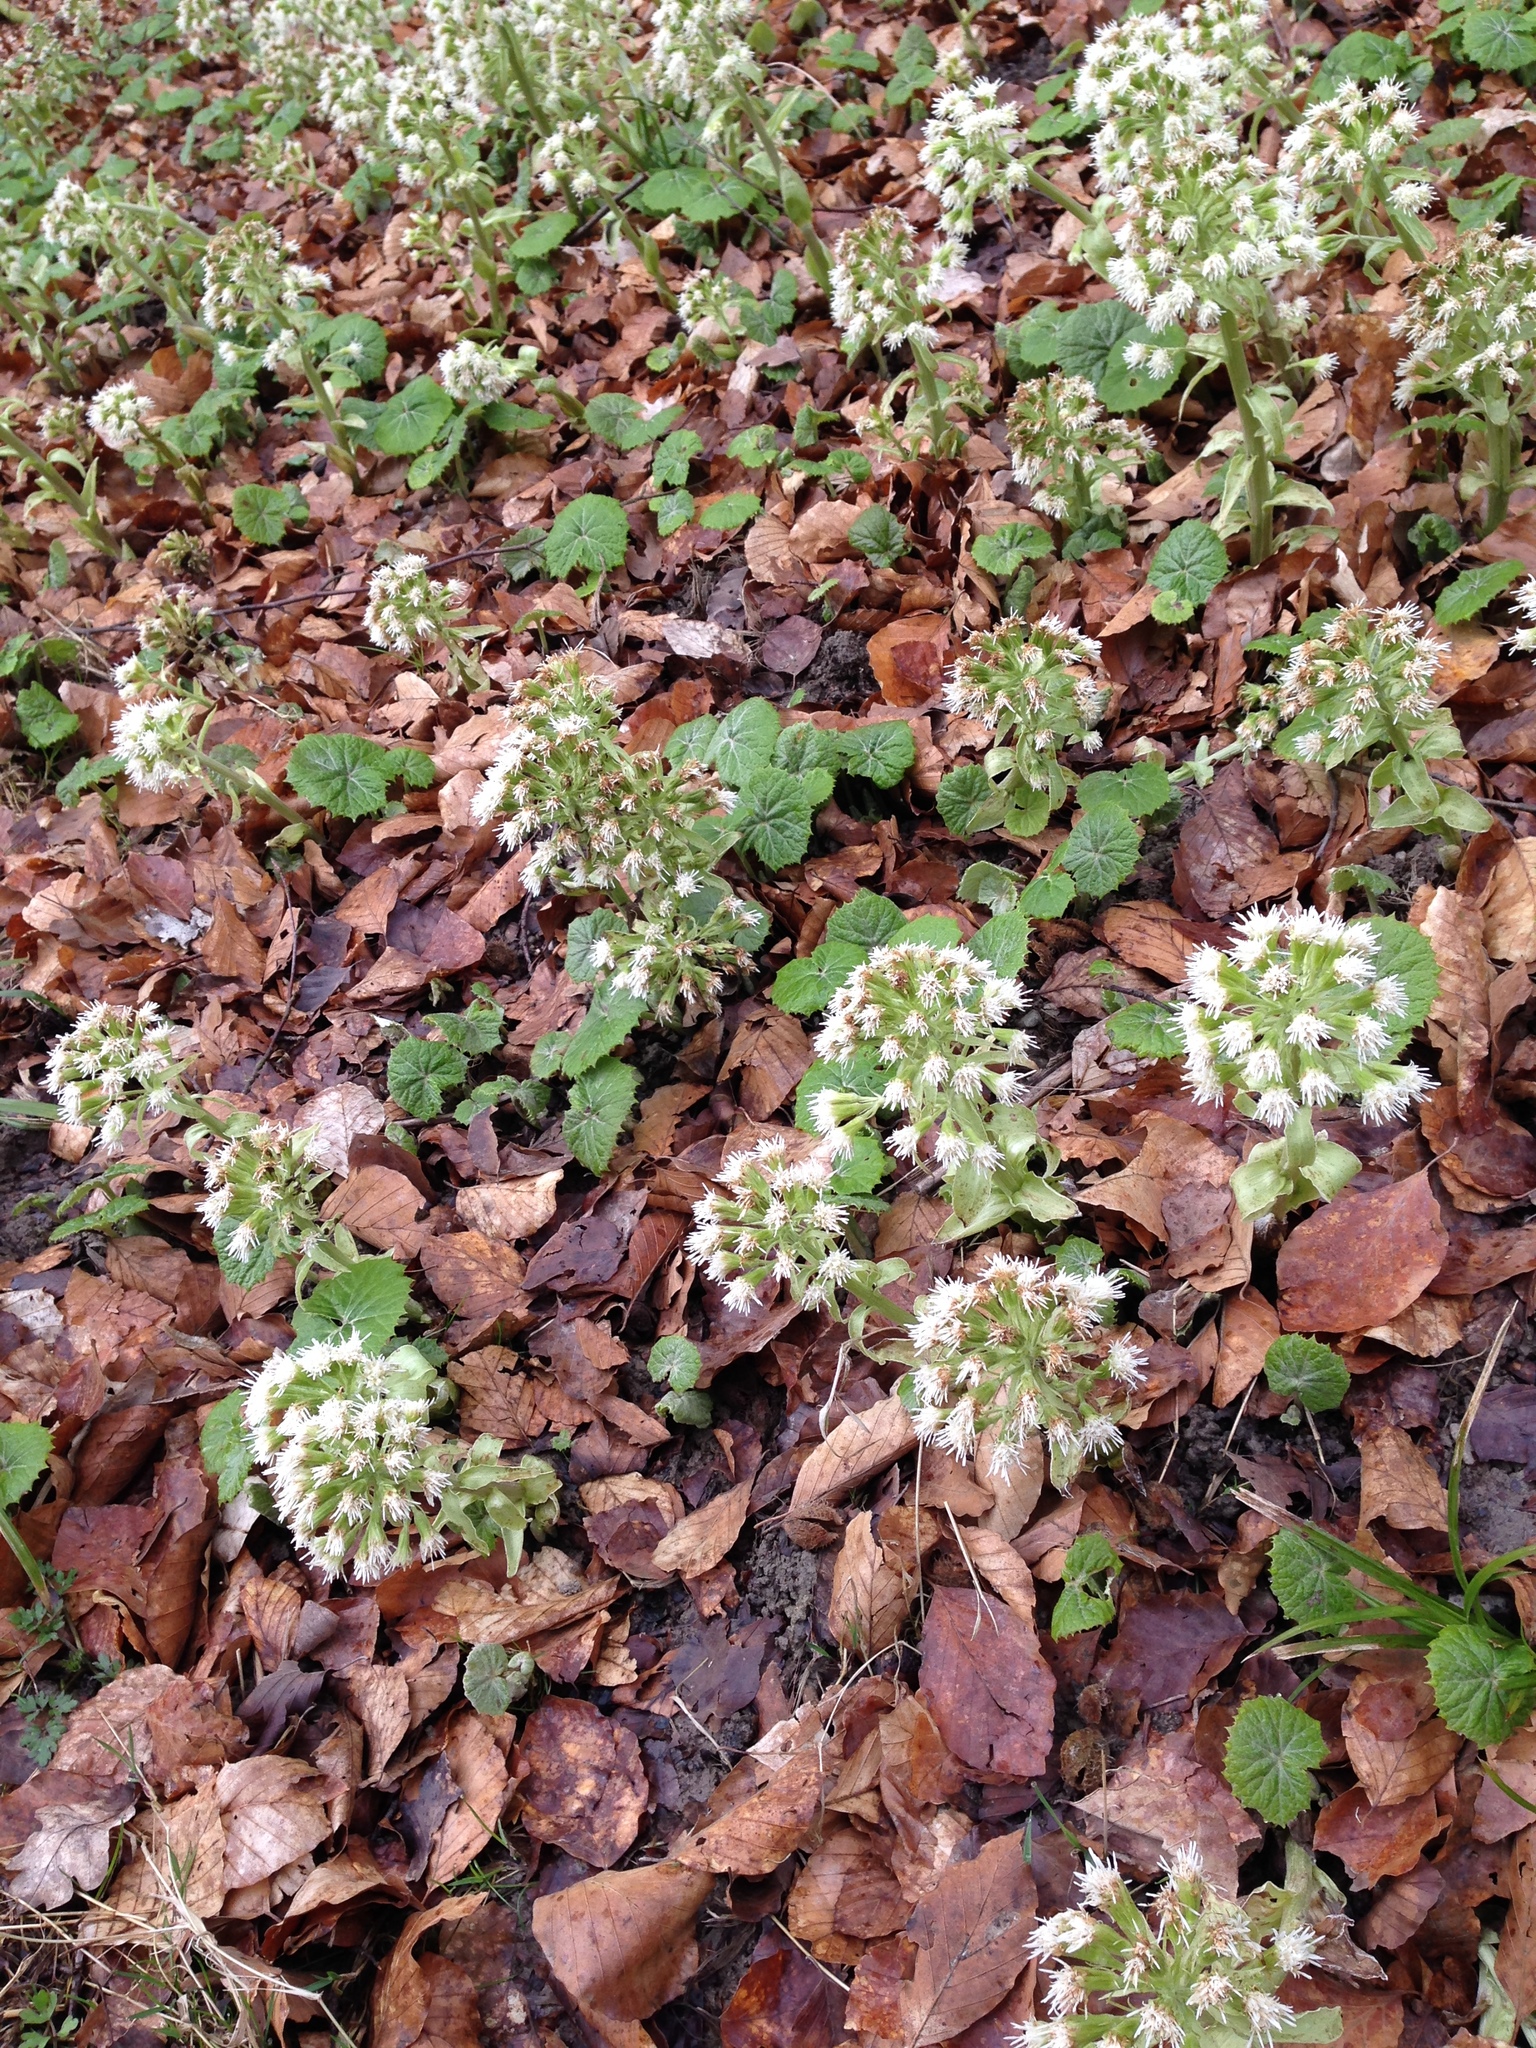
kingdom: Plantae
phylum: Tracheophyta
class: Magnoliopsida
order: Asterales
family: Asteraceae
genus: Petasites
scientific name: Petasites albus
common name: White butterbur
